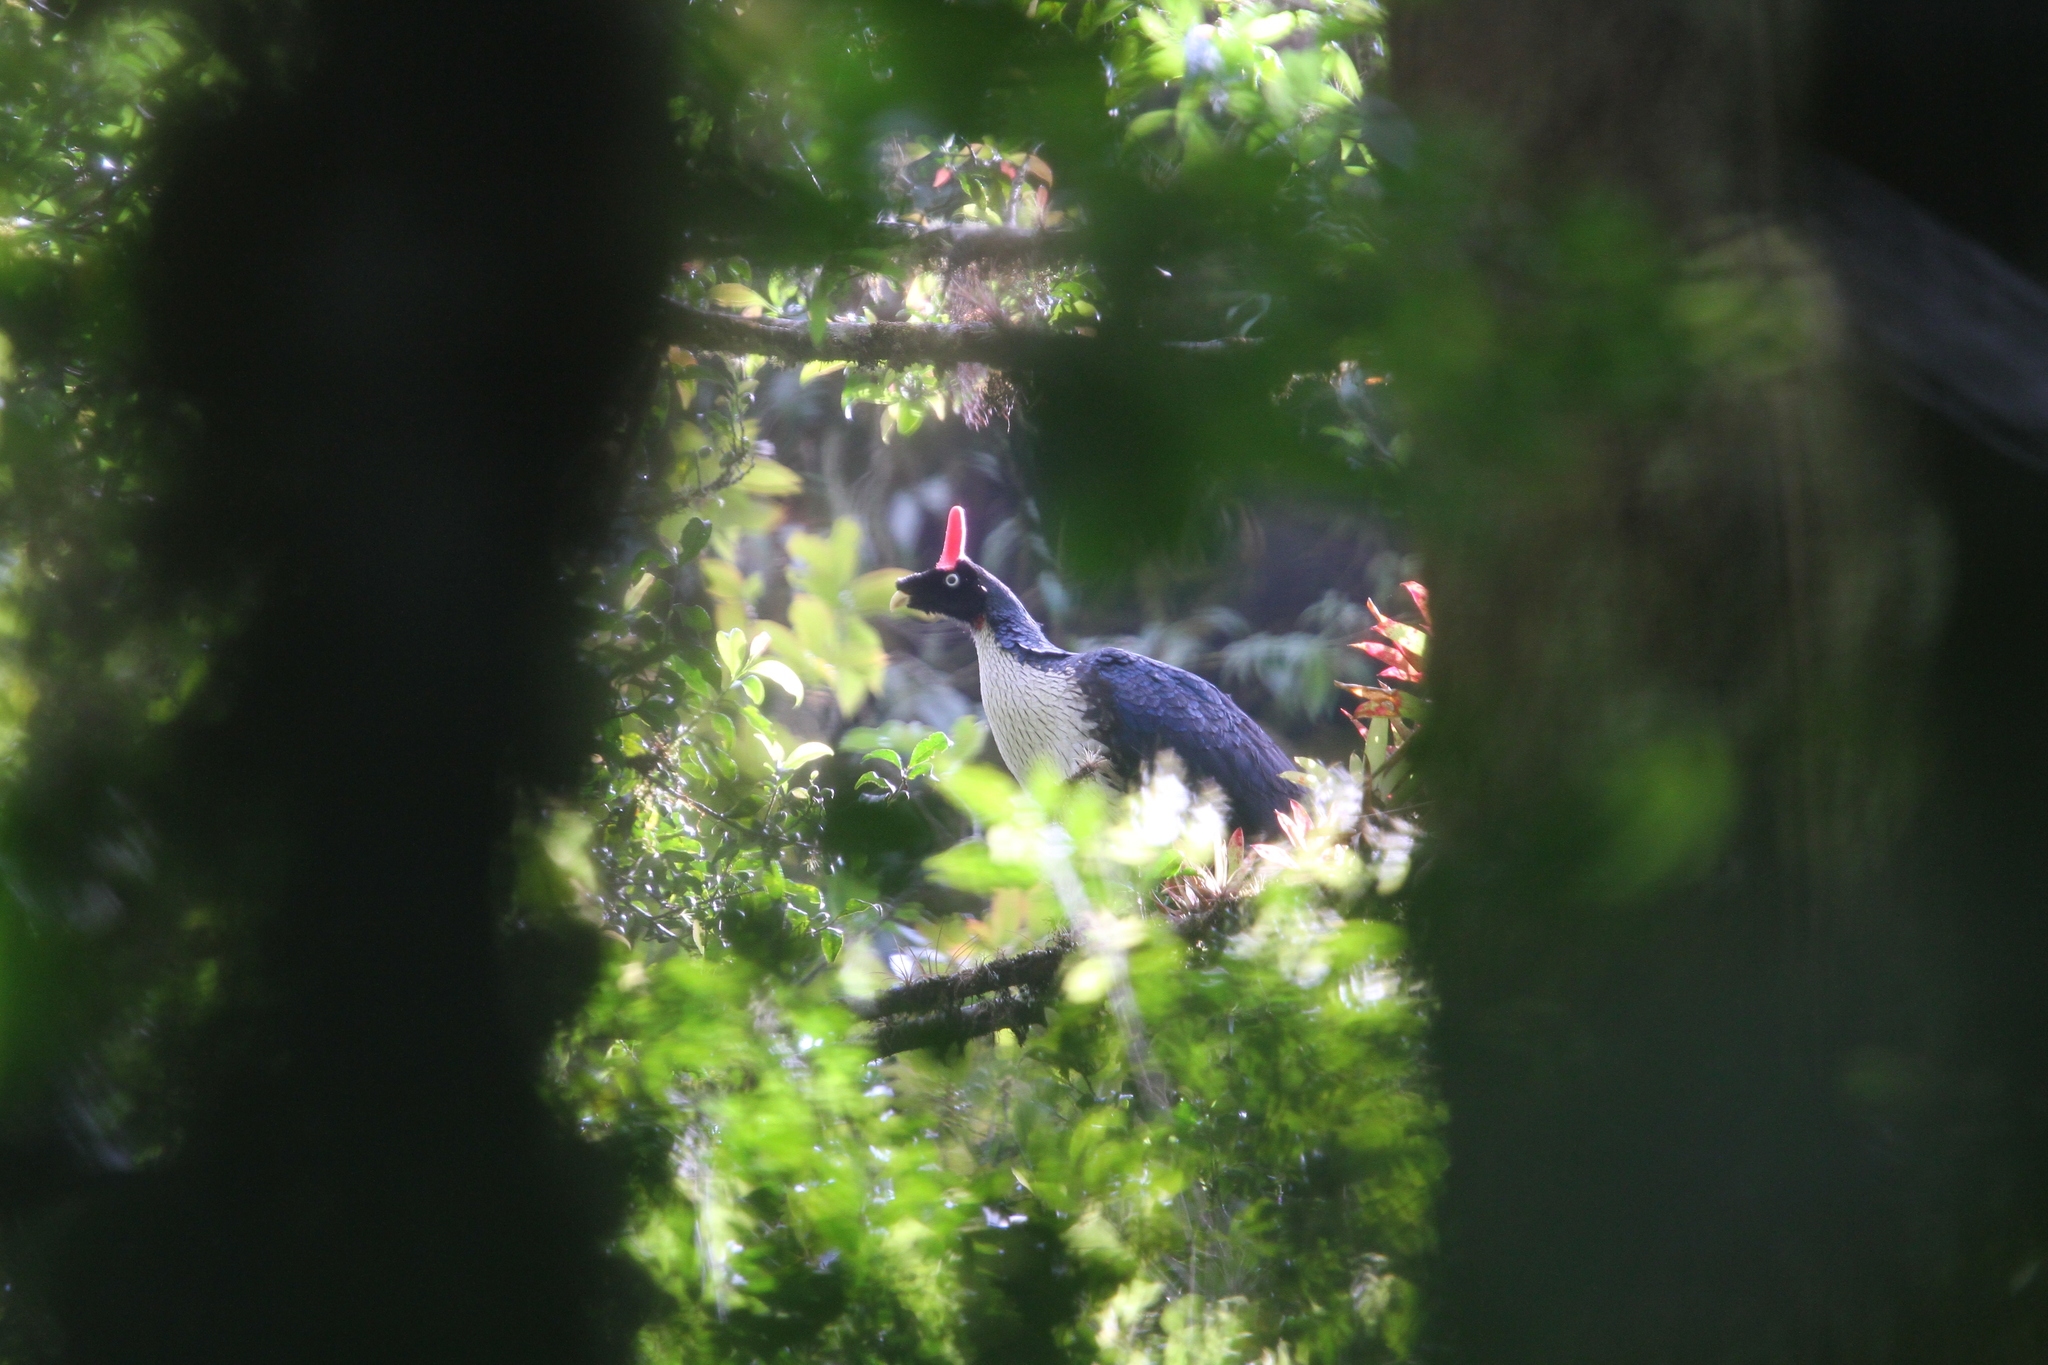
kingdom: Animalia
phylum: Chordata
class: Aves
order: Galliformes
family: Cracidae
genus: Oreophasis
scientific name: Oreophasis derbianus
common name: Horned guan
